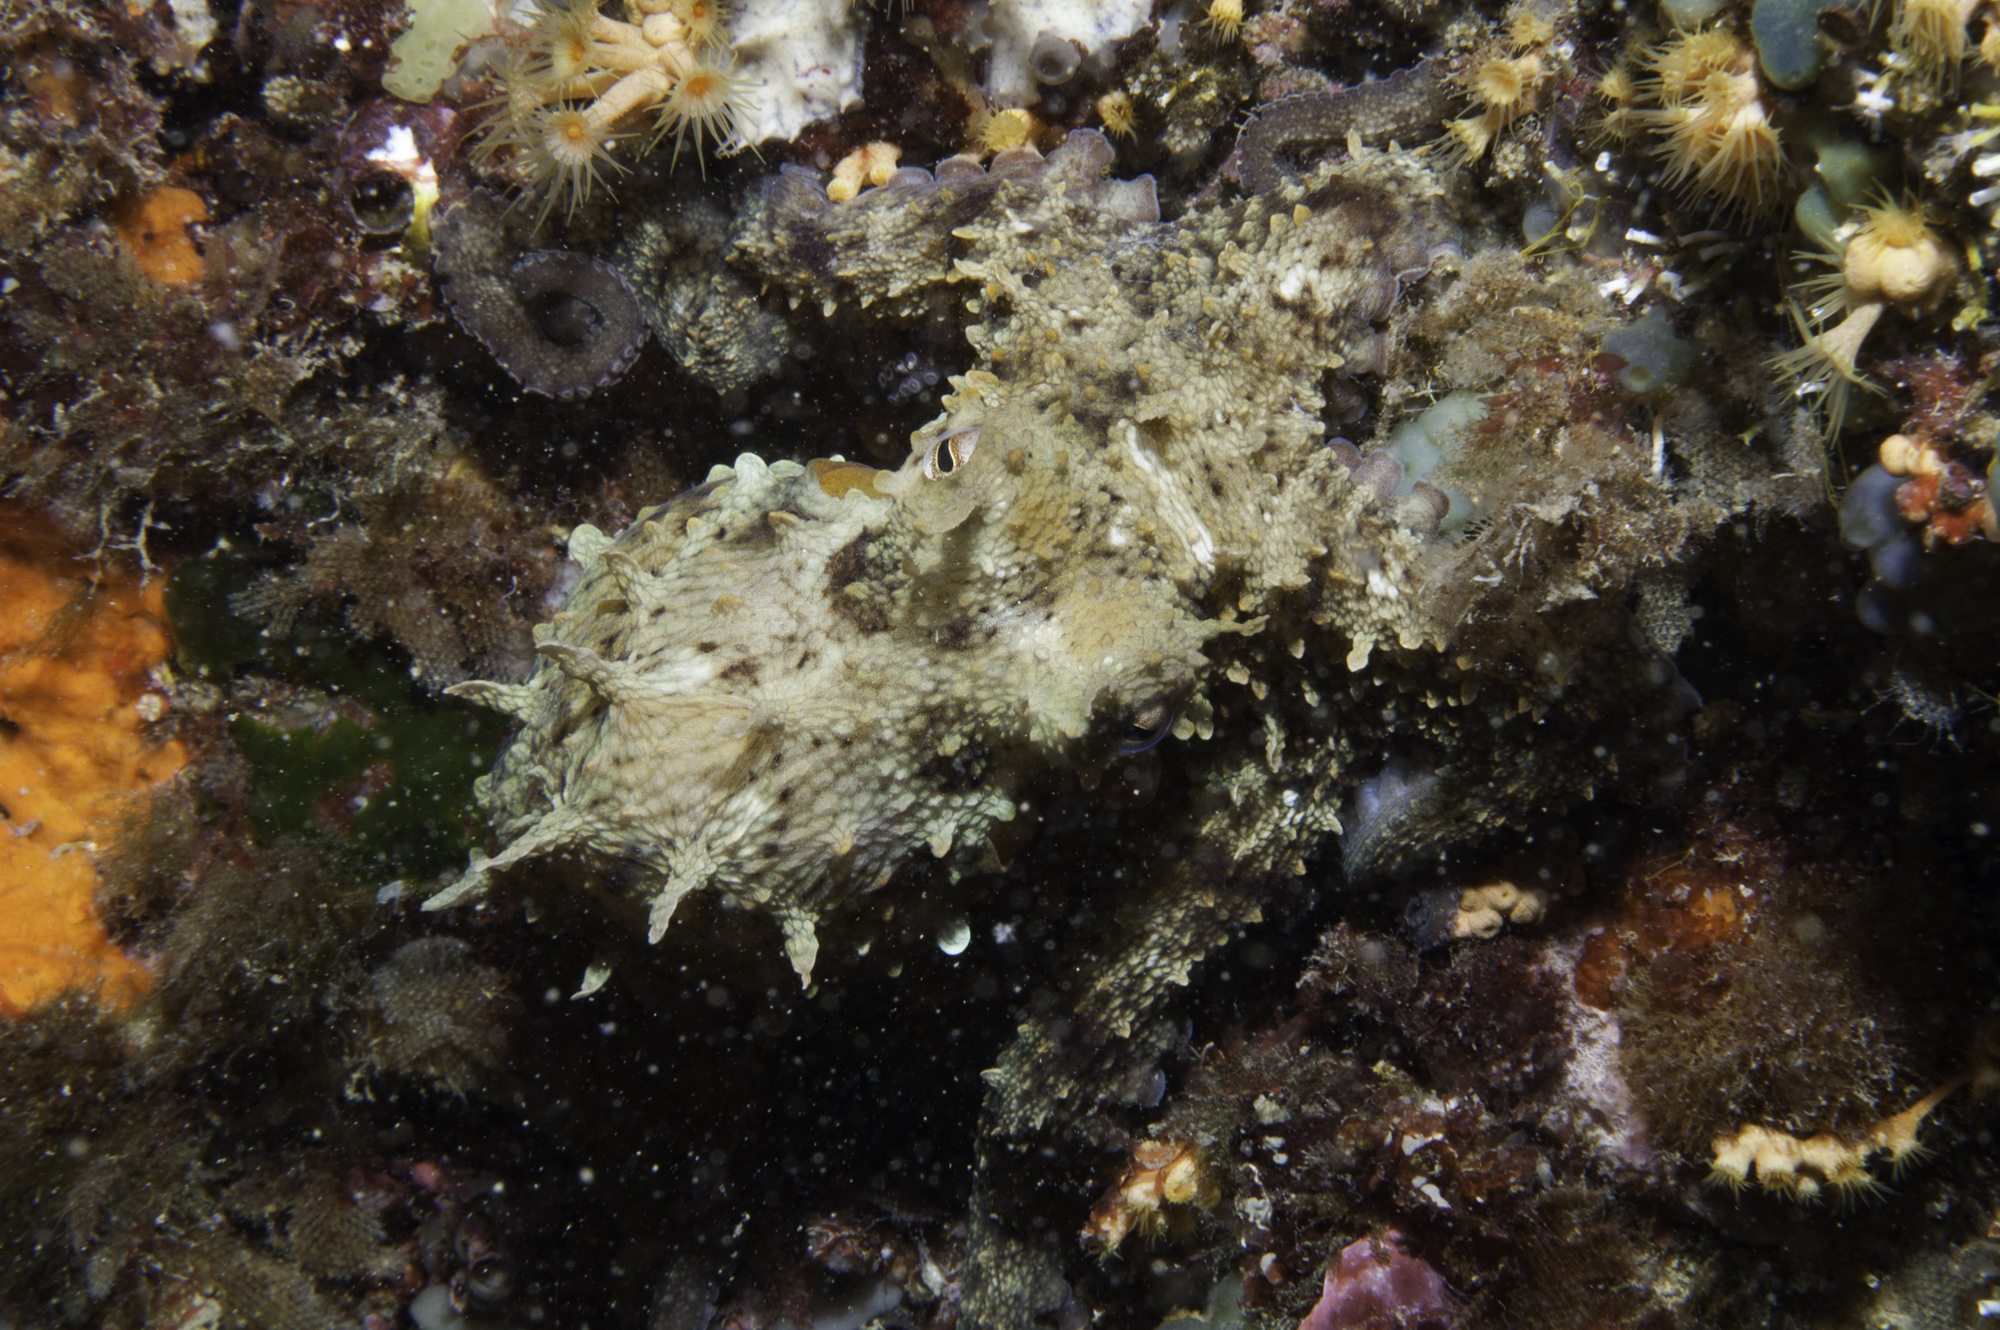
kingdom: Animalia
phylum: Mollusca
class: Cephalopoda
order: Octopoda
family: Octopodidae
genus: Octopus
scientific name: Octopus vulgaris
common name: Common octopus
